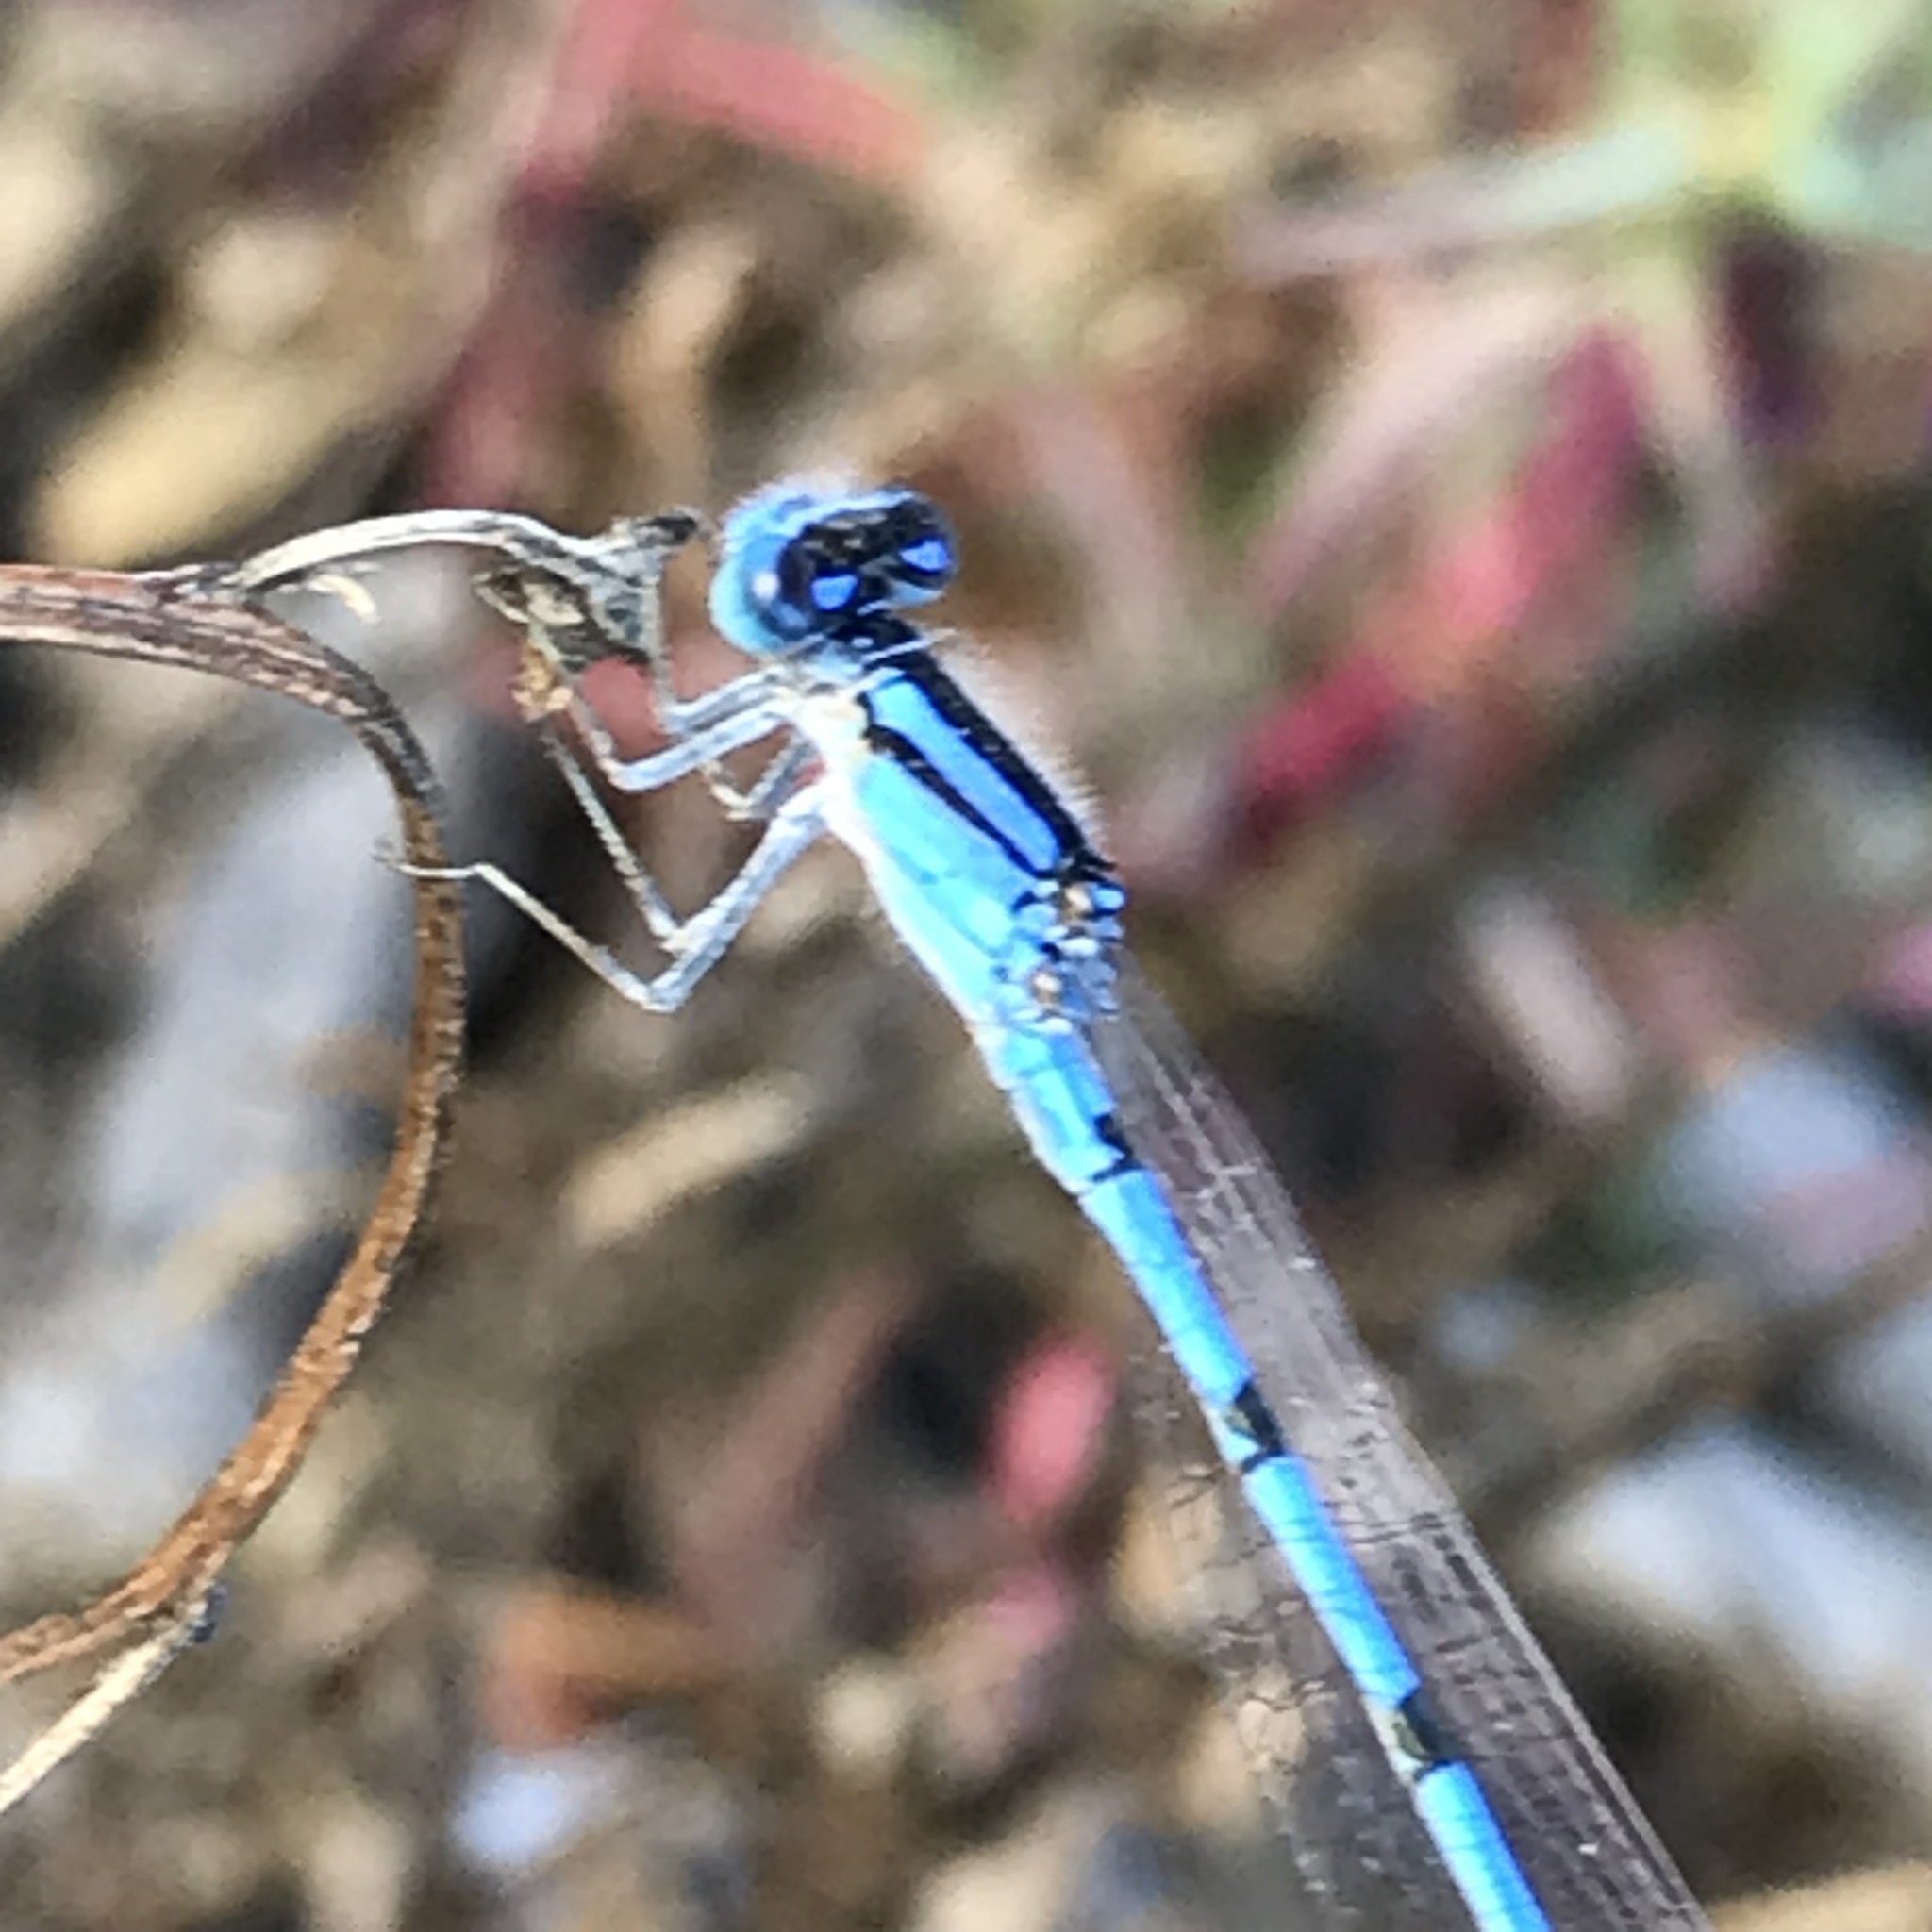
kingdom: Animalia
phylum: Arthropoda
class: Insecta
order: Odonata
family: Coenagrionidae
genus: Enallagma
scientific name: Enallagma civile
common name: Damselfly
